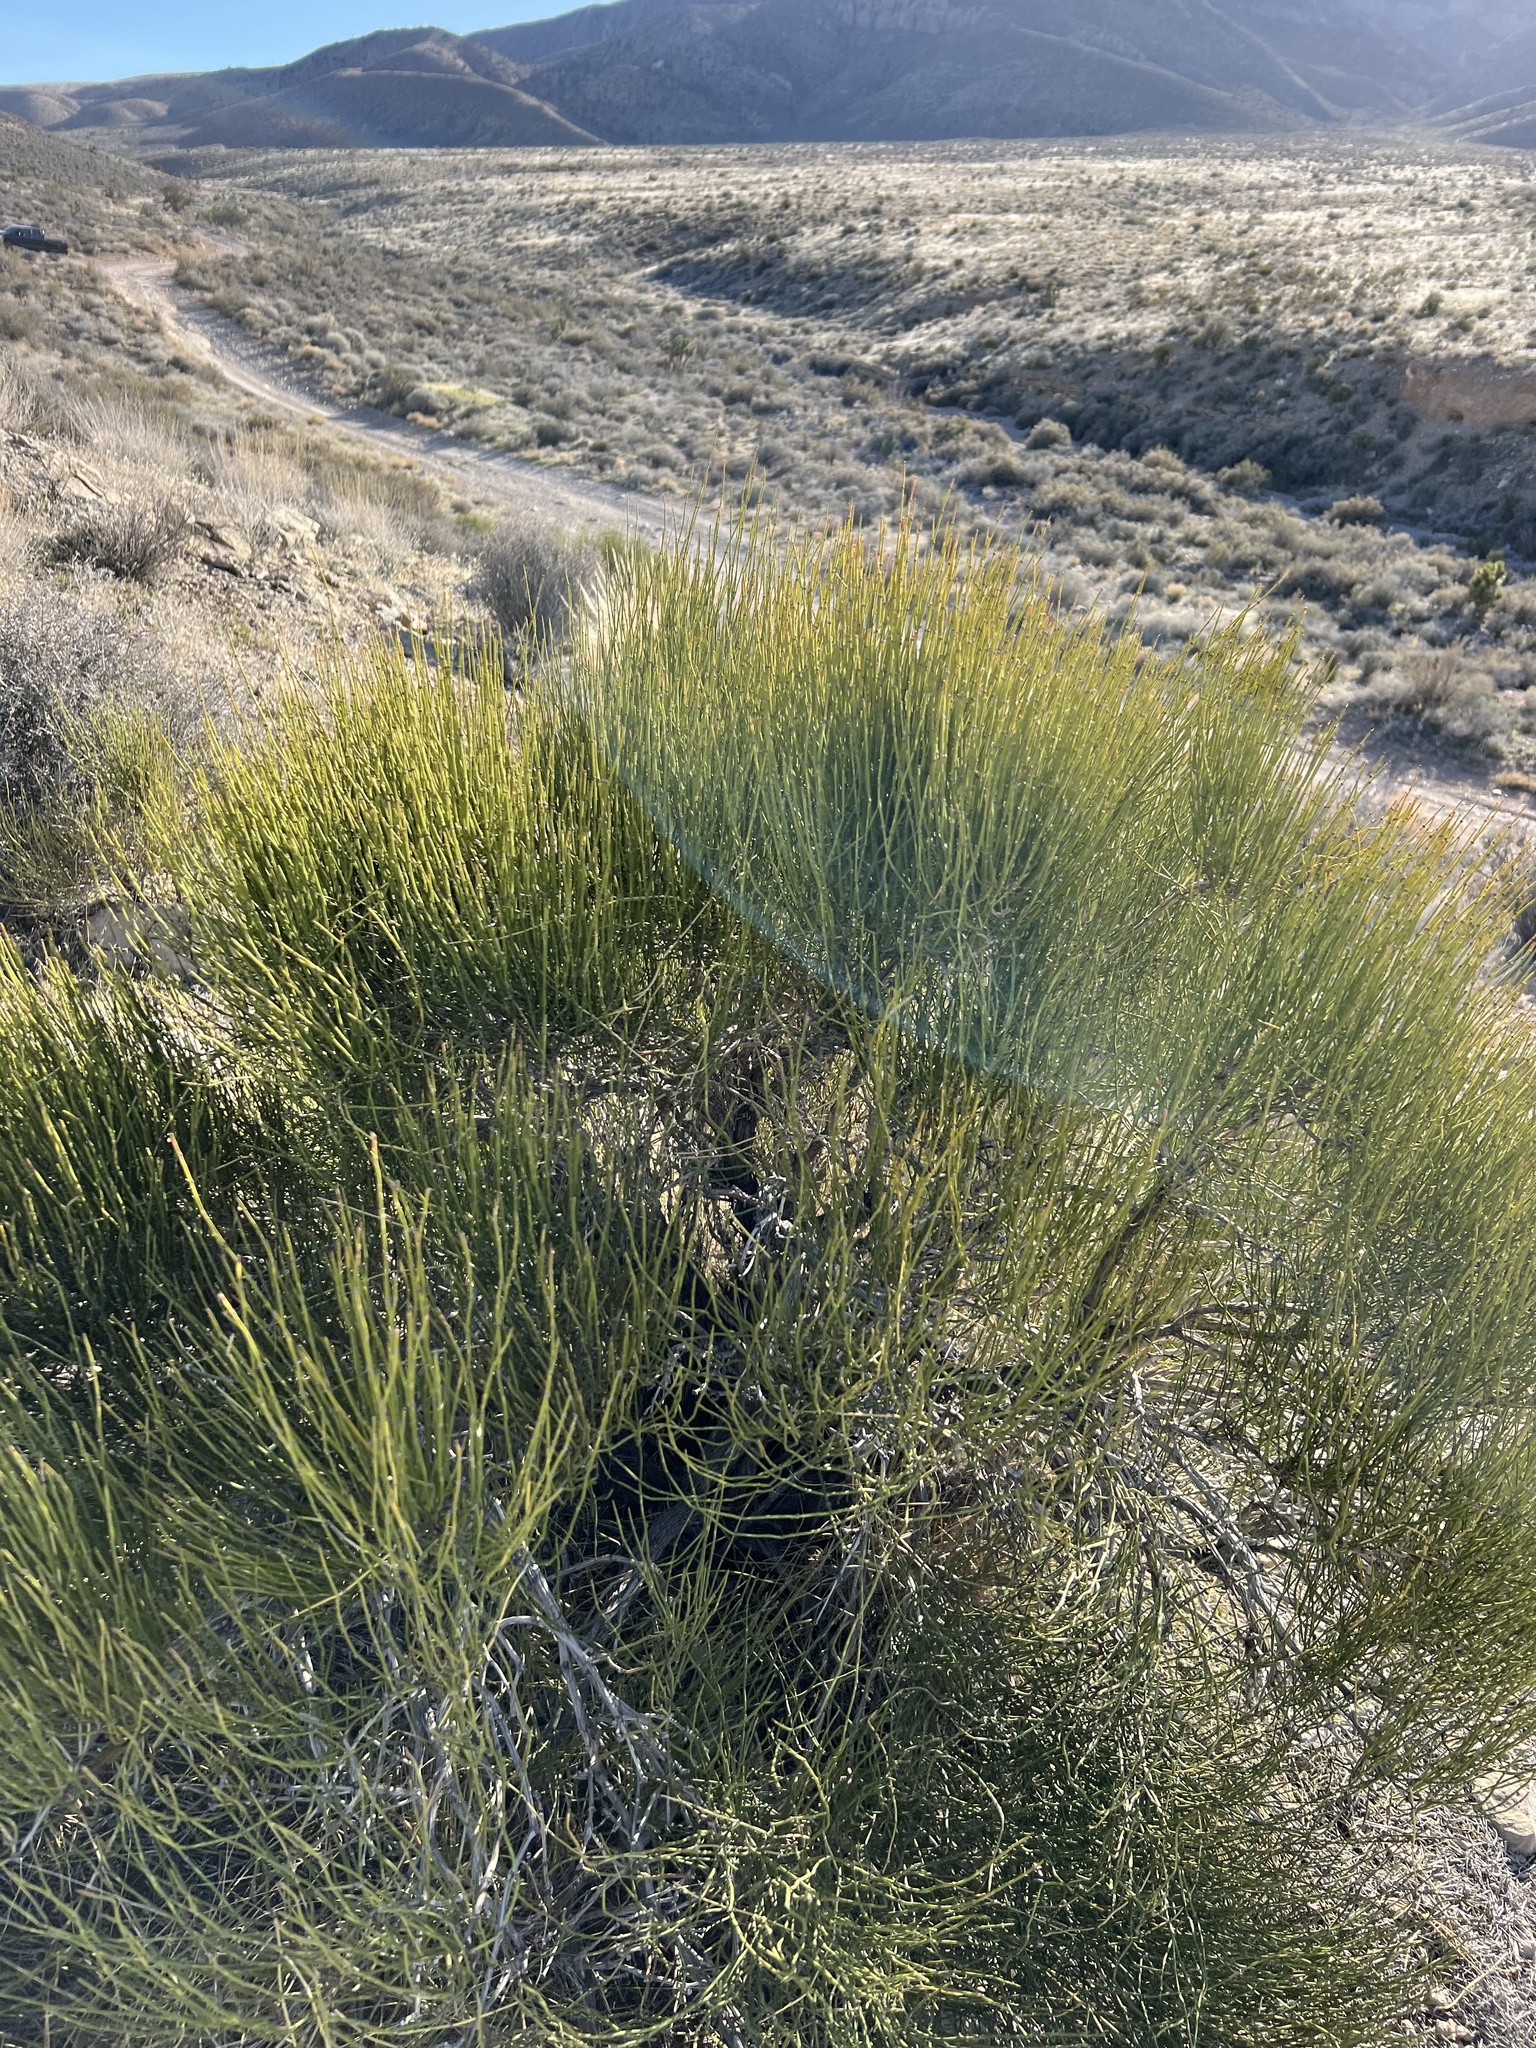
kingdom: Plantae
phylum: Tracheophyta
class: Gnetopsida
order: Ephedrales
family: Ephedraceae
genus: Ephedra
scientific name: Ephedra viridis
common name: Green ephedra
